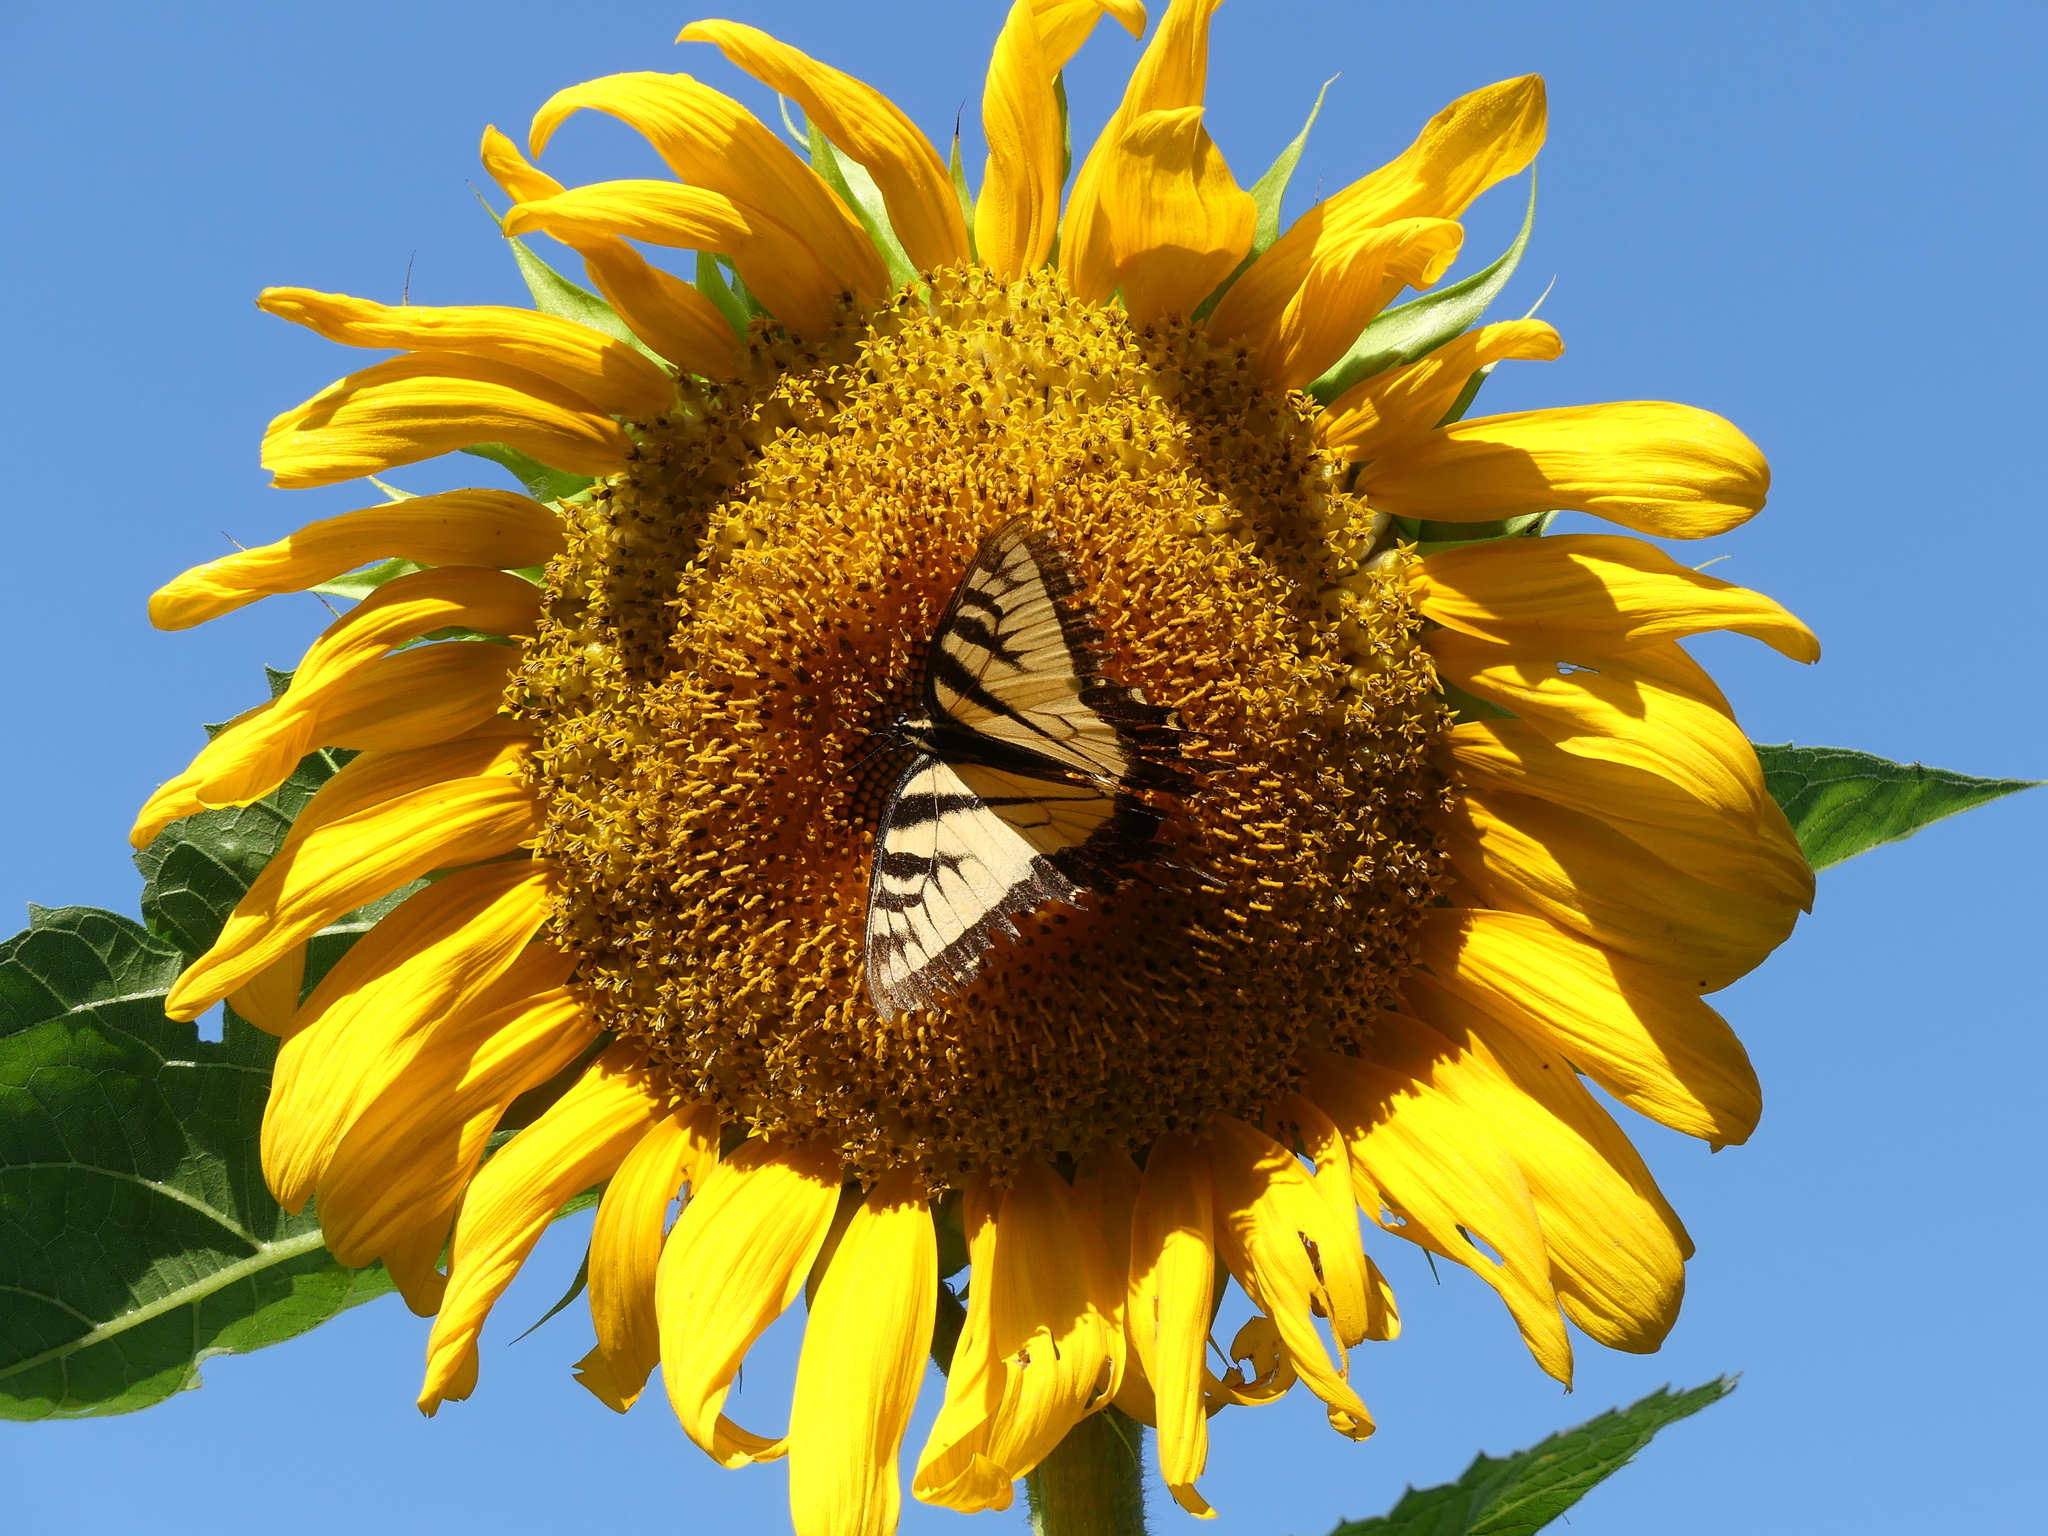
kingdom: Animalia
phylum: Arthropoda
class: Insecta
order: Lepidoptera
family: Papilionidae
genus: Papilio
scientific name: Papilio glaucus
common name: Tiger swallowtail
